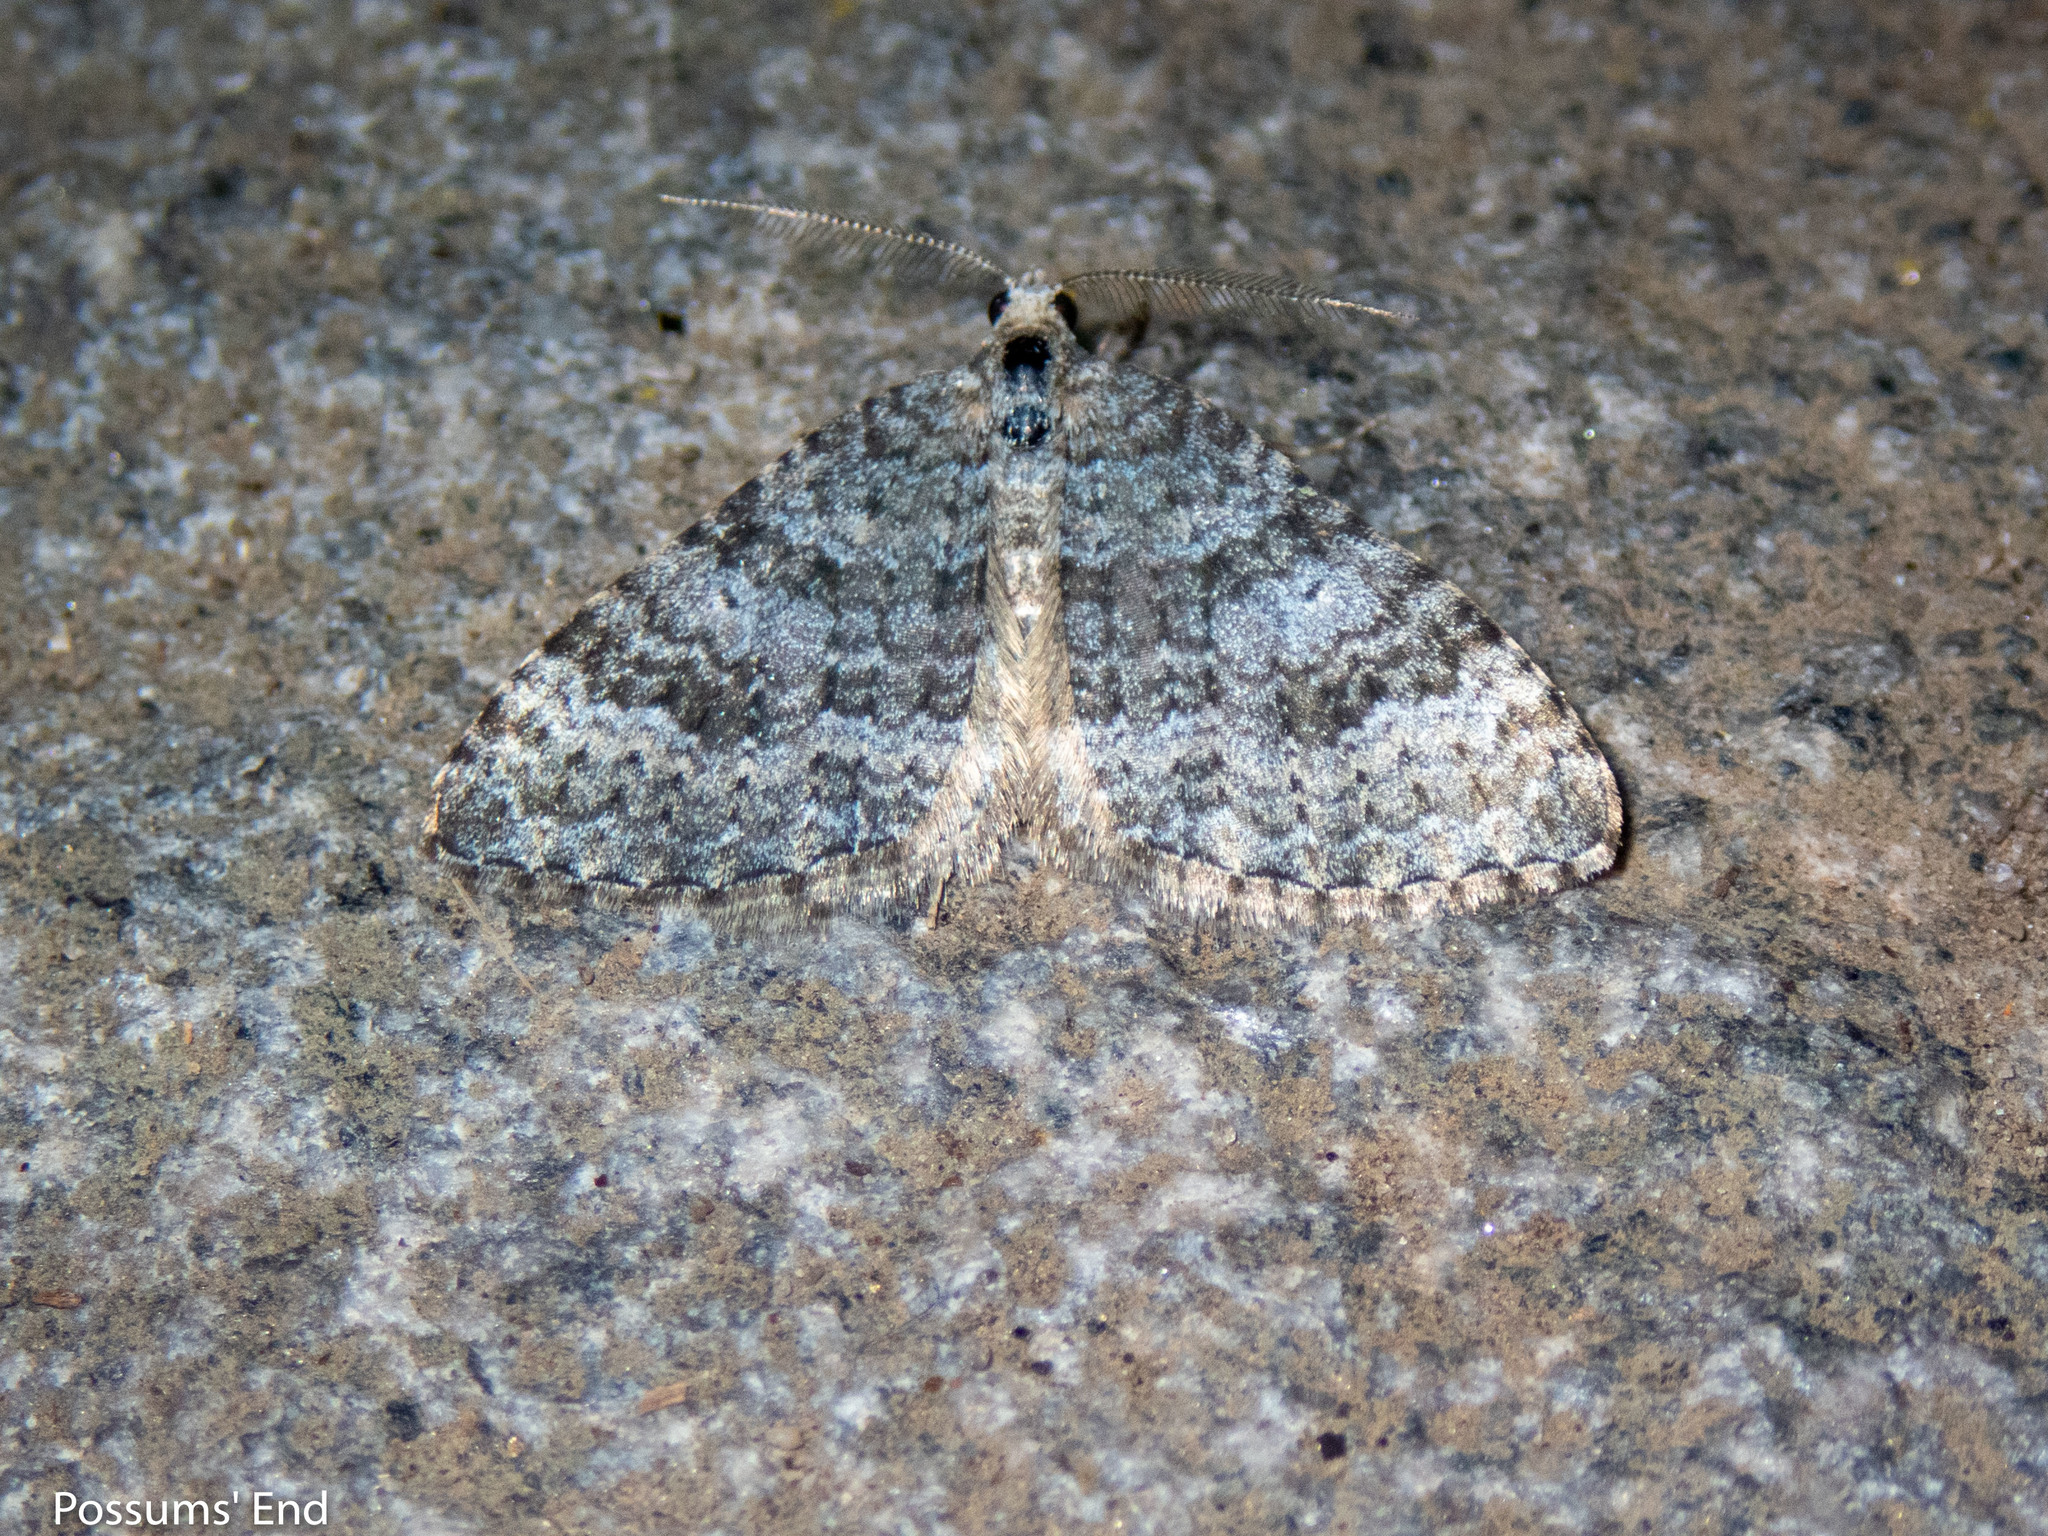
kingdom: Animalia
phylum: Arthropoda
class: Insecta
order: Lepidoptera
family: Geometridae
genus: Helastia
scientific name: Helastia corcularia
